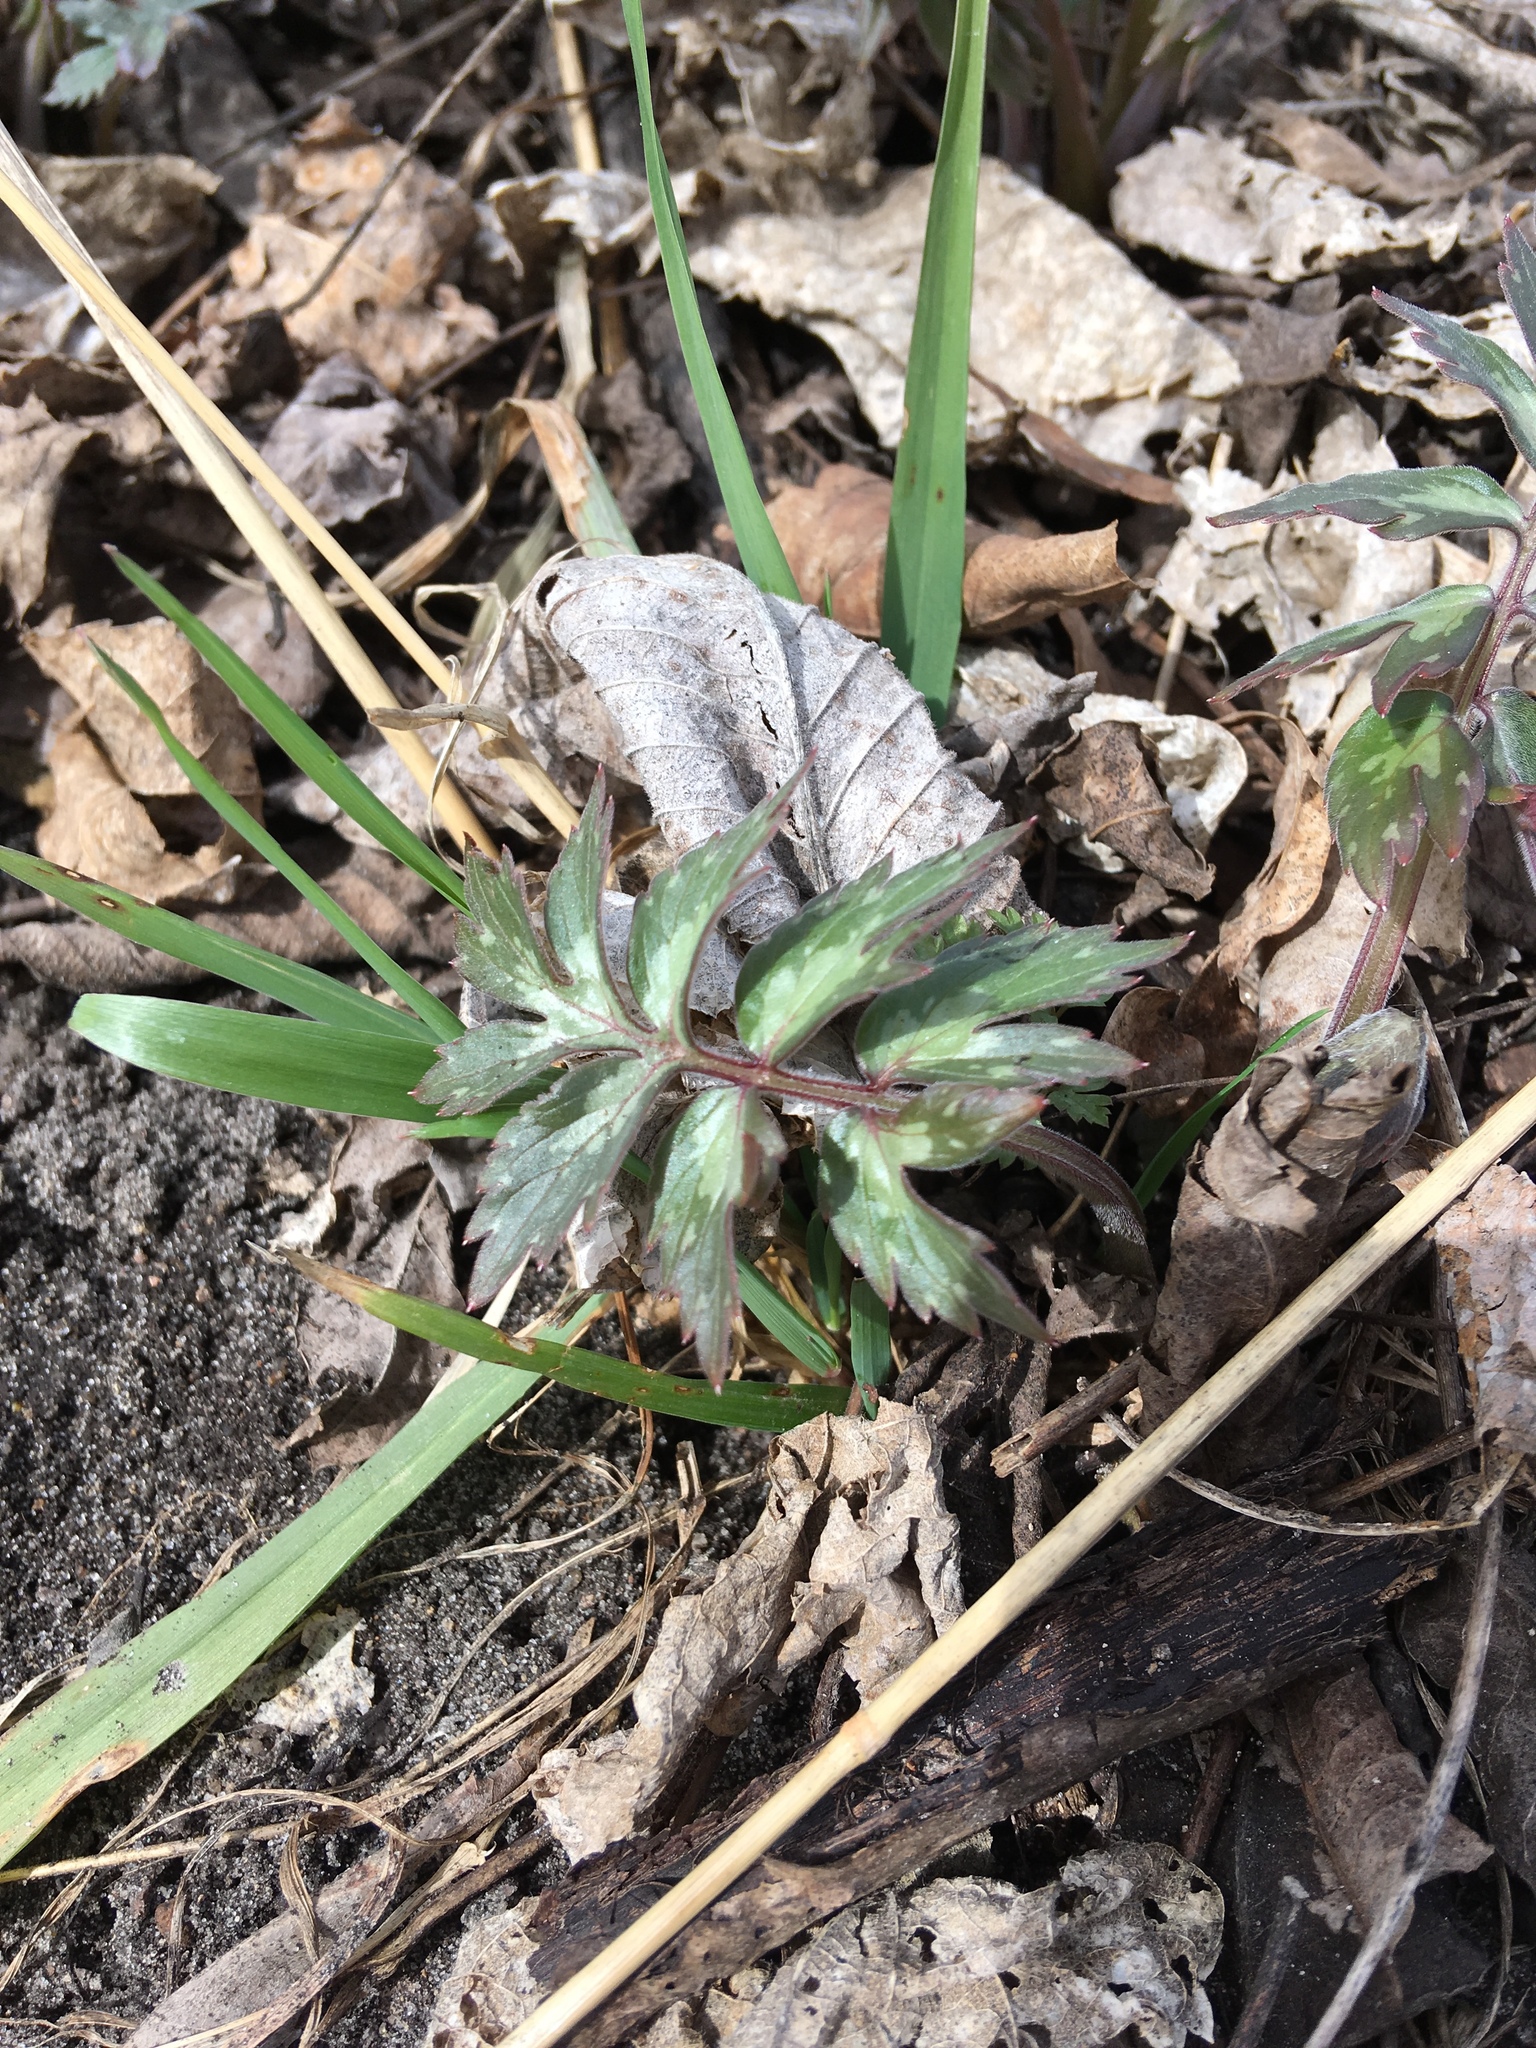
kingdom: Plantae
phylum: Tracheophyta
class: Magnoliopsida
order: Boraginales
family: Hydrophyllaceae
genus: Hydrophyllum
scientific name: Hydrophyllum virginianum
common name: Virginia waterleaf
